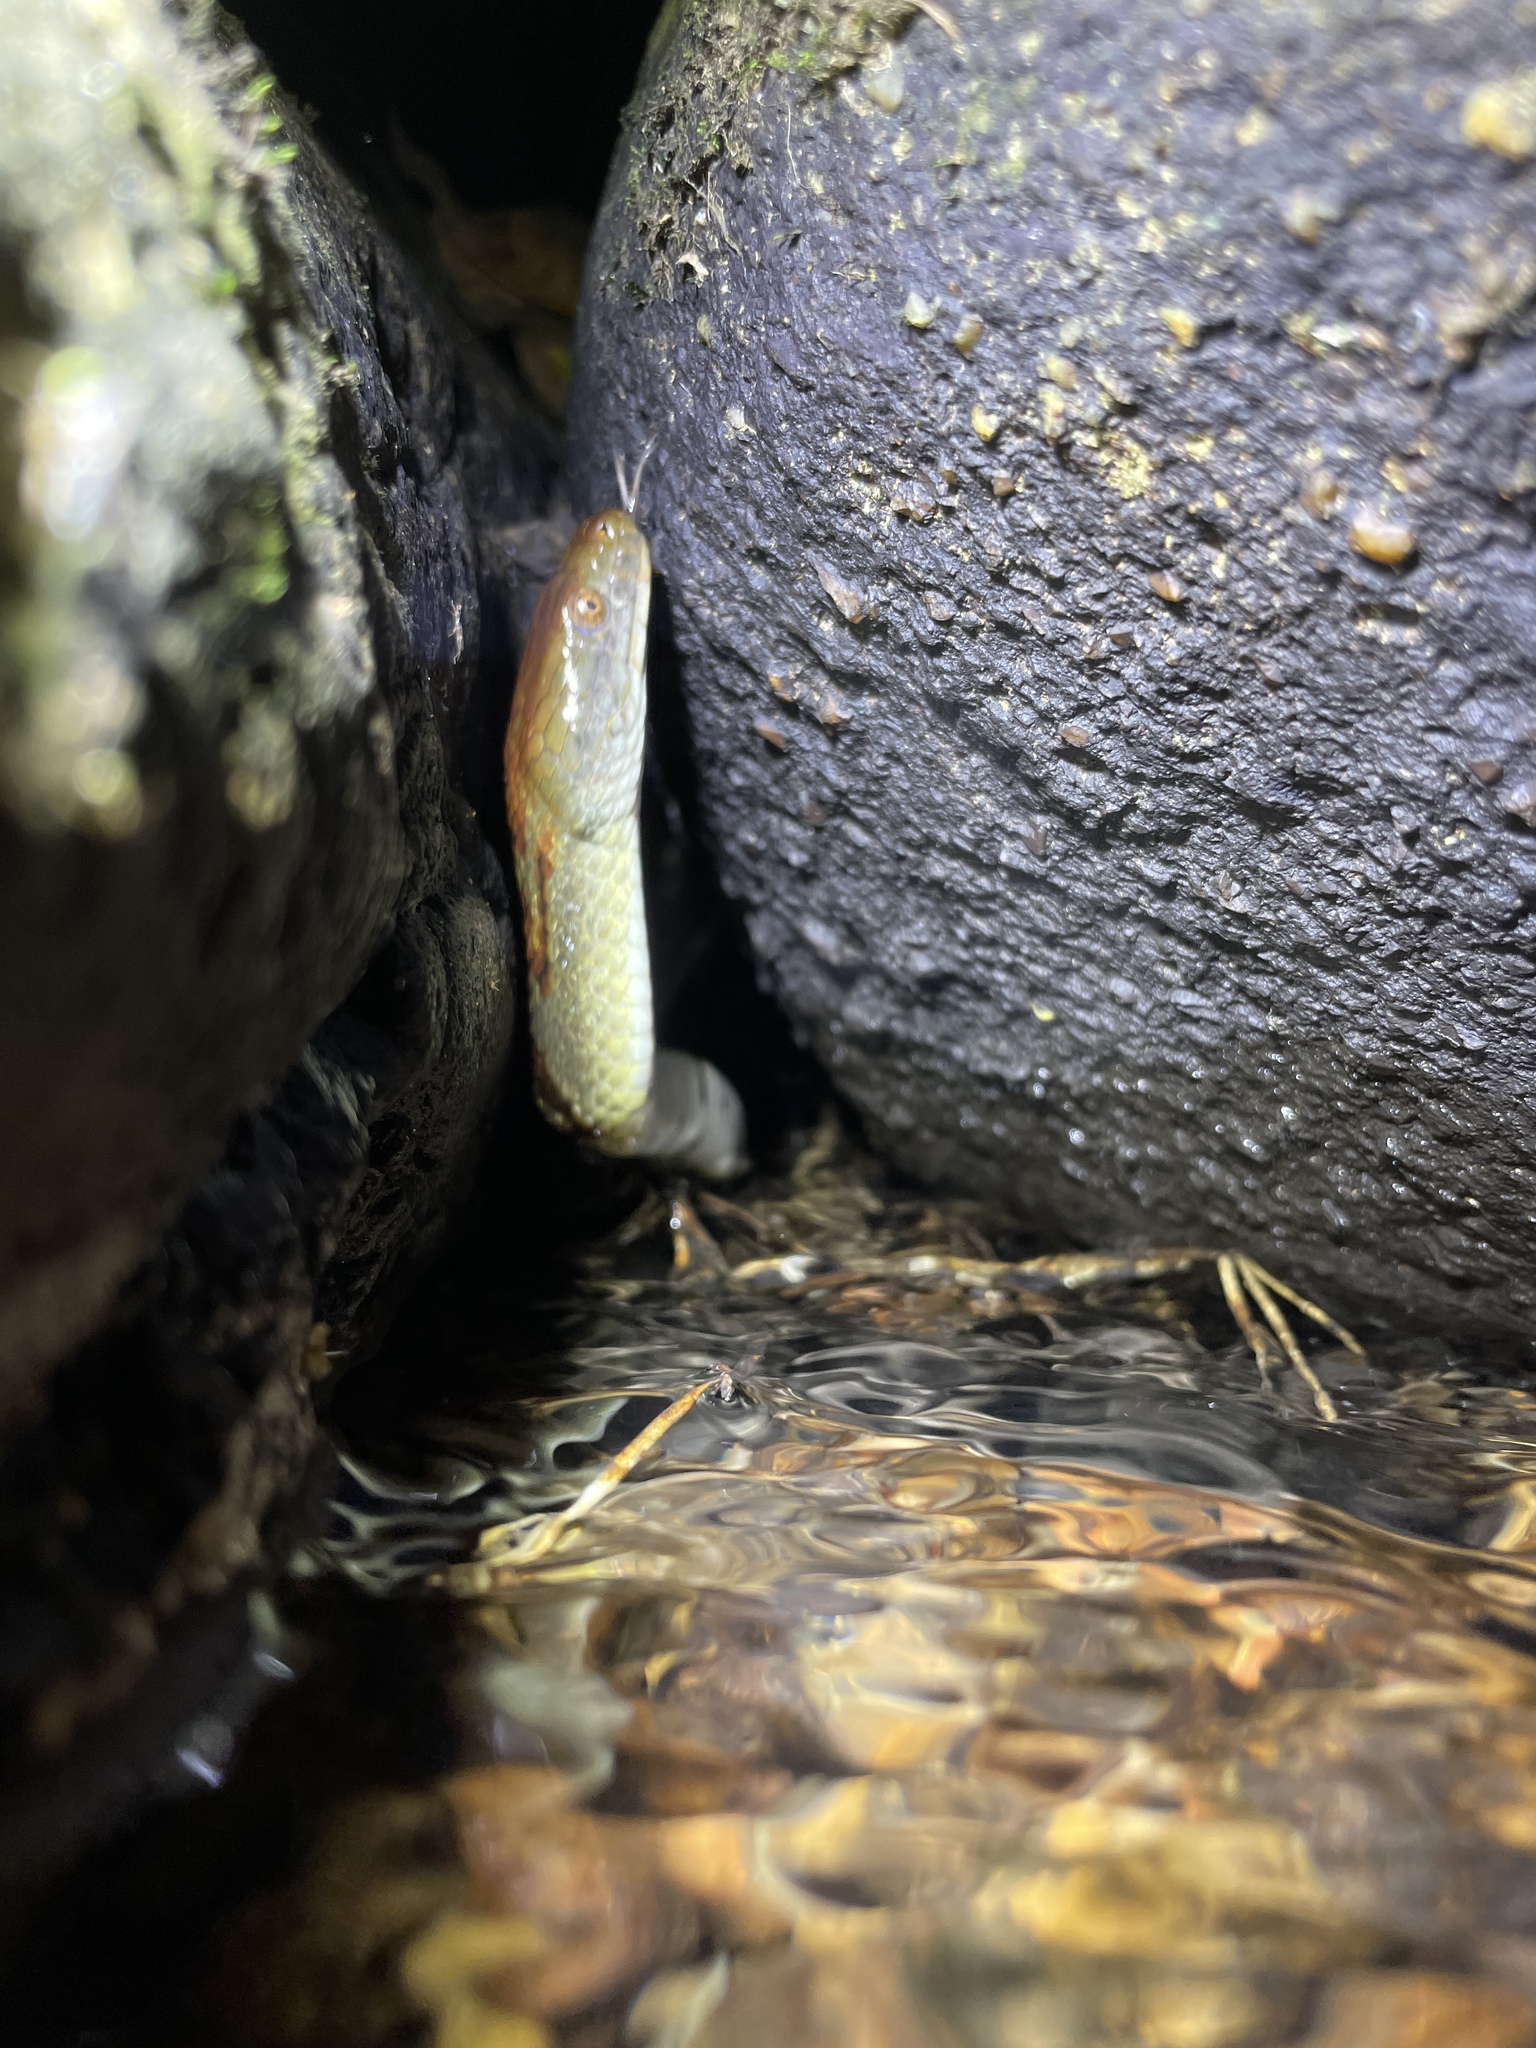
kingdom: Animalia
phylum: Chordata
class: Squamata
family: Colubridae
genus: Trimerodytes
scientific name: Trimerodytes aequifasciatus
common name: Asiatic water snake
